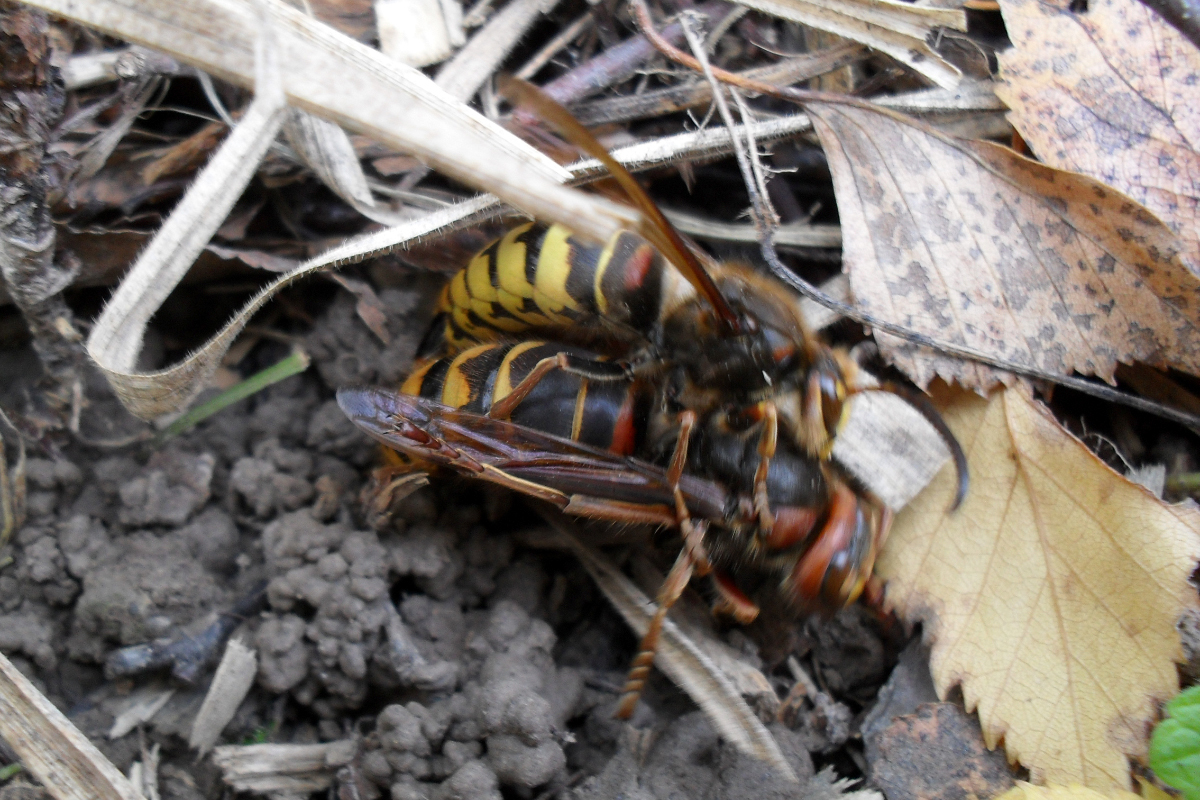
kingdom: Animalia
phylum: Arthropoda
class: Insecta
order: Hymenoptera
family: Vespidae
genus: Vespa
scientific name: Vespa crabro
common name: Hornet
